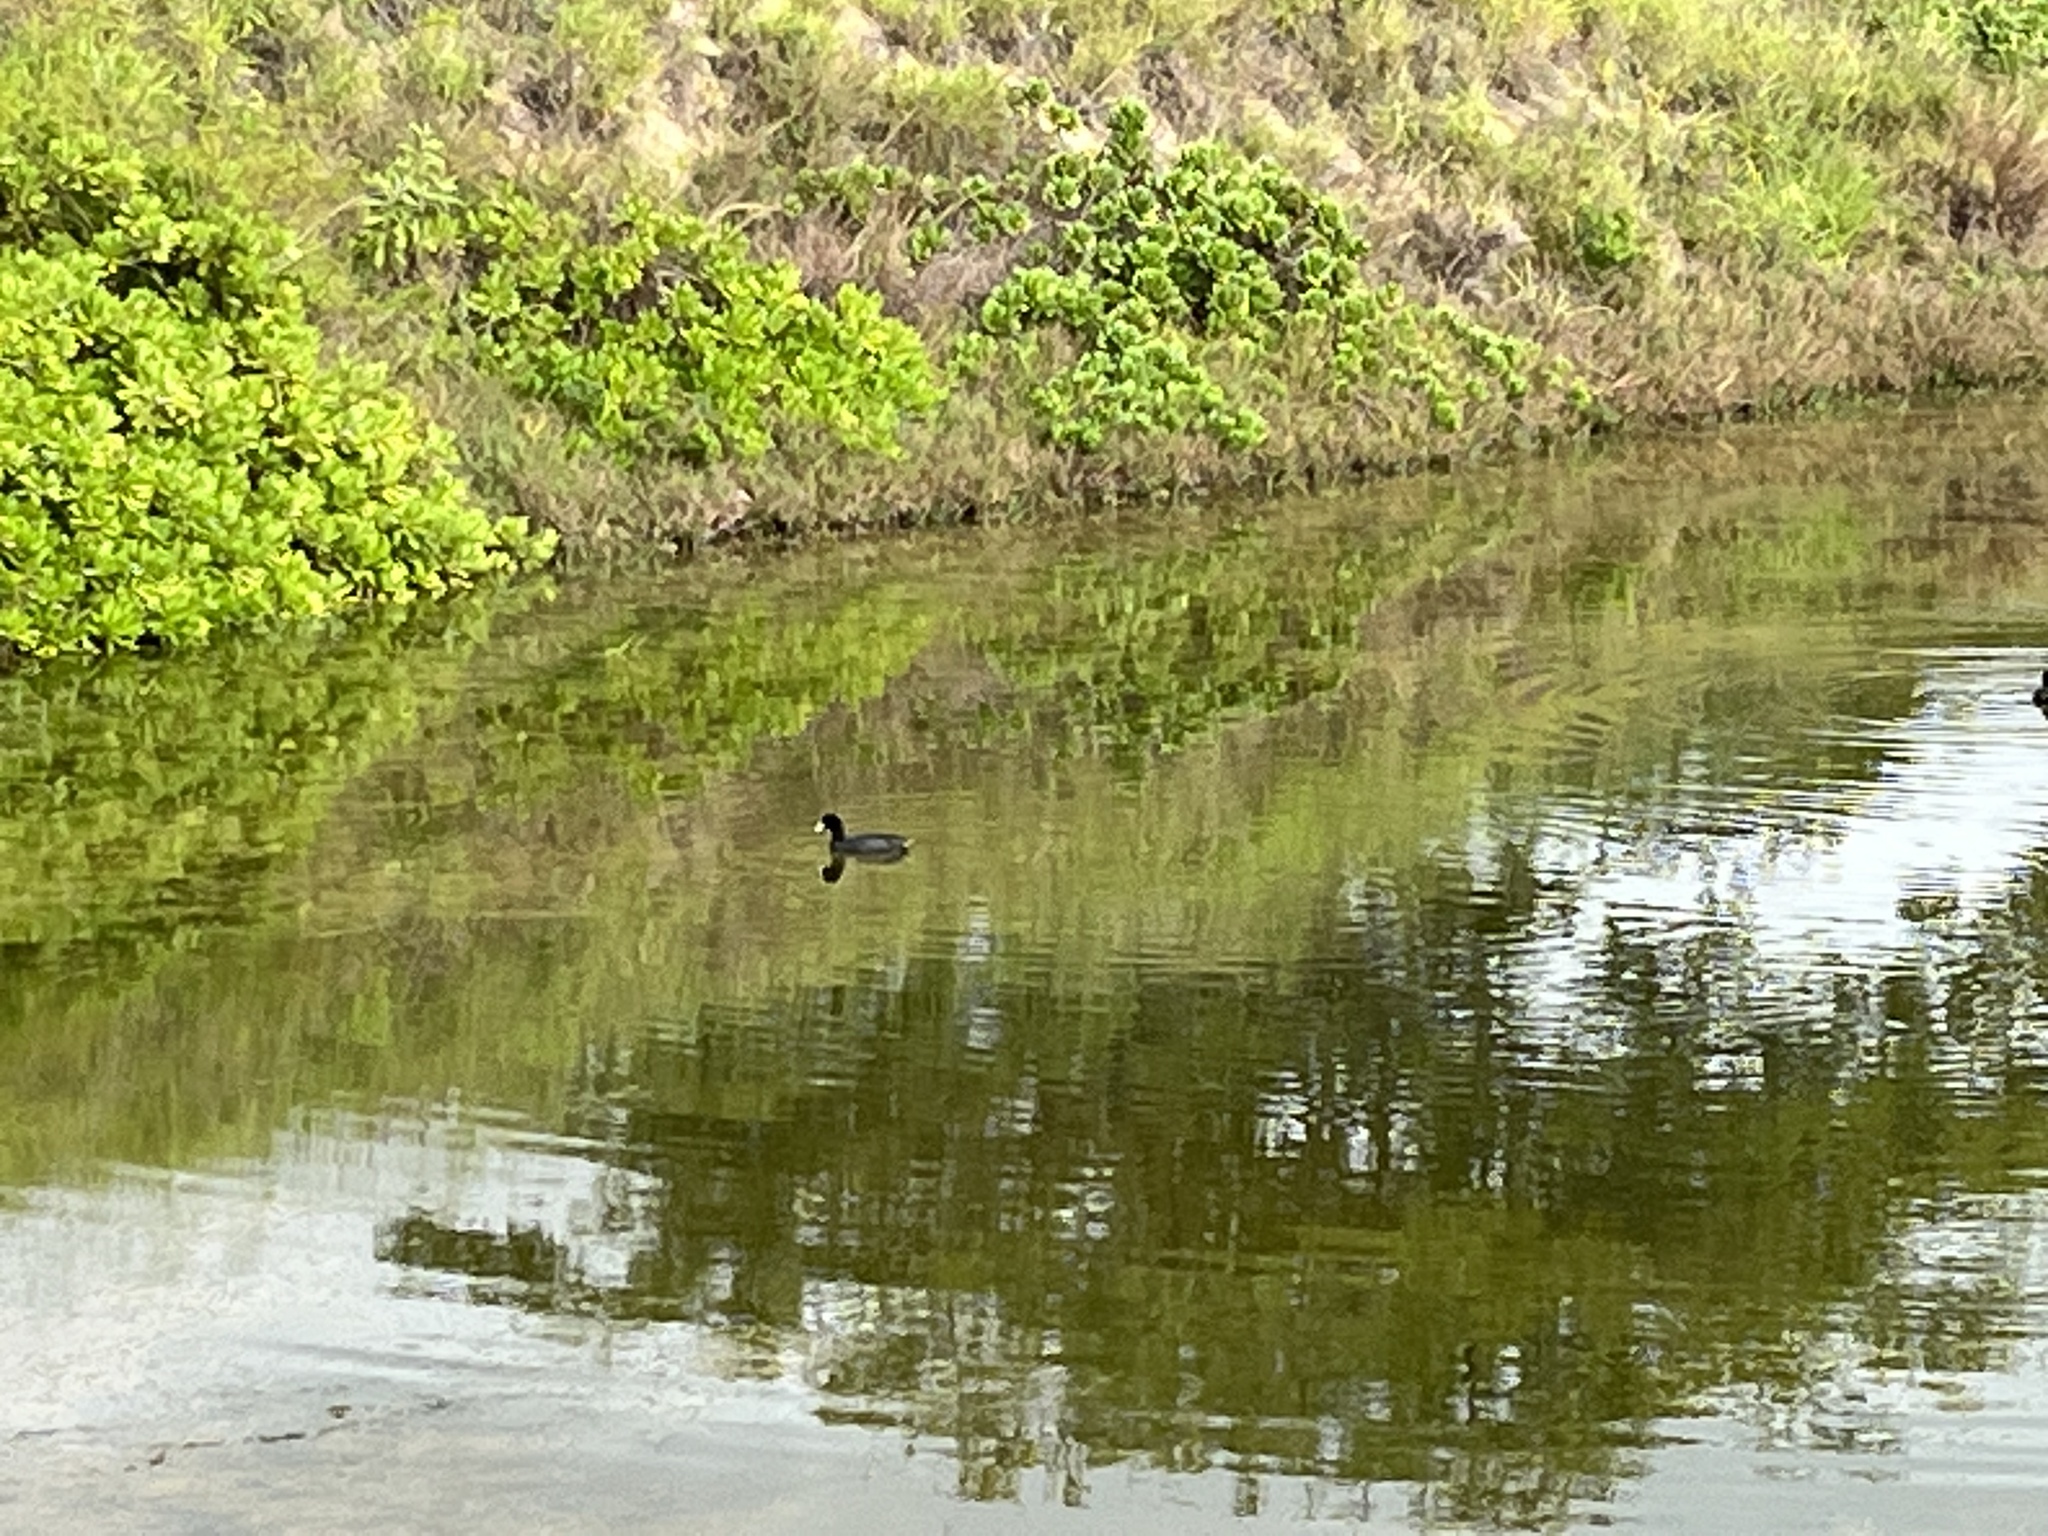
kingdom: Animalia
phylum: Chordata
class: Aves
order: Gruiformes
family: Rallidae
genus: Fulica
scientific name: Fulica alai
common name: Hawaiian coot
